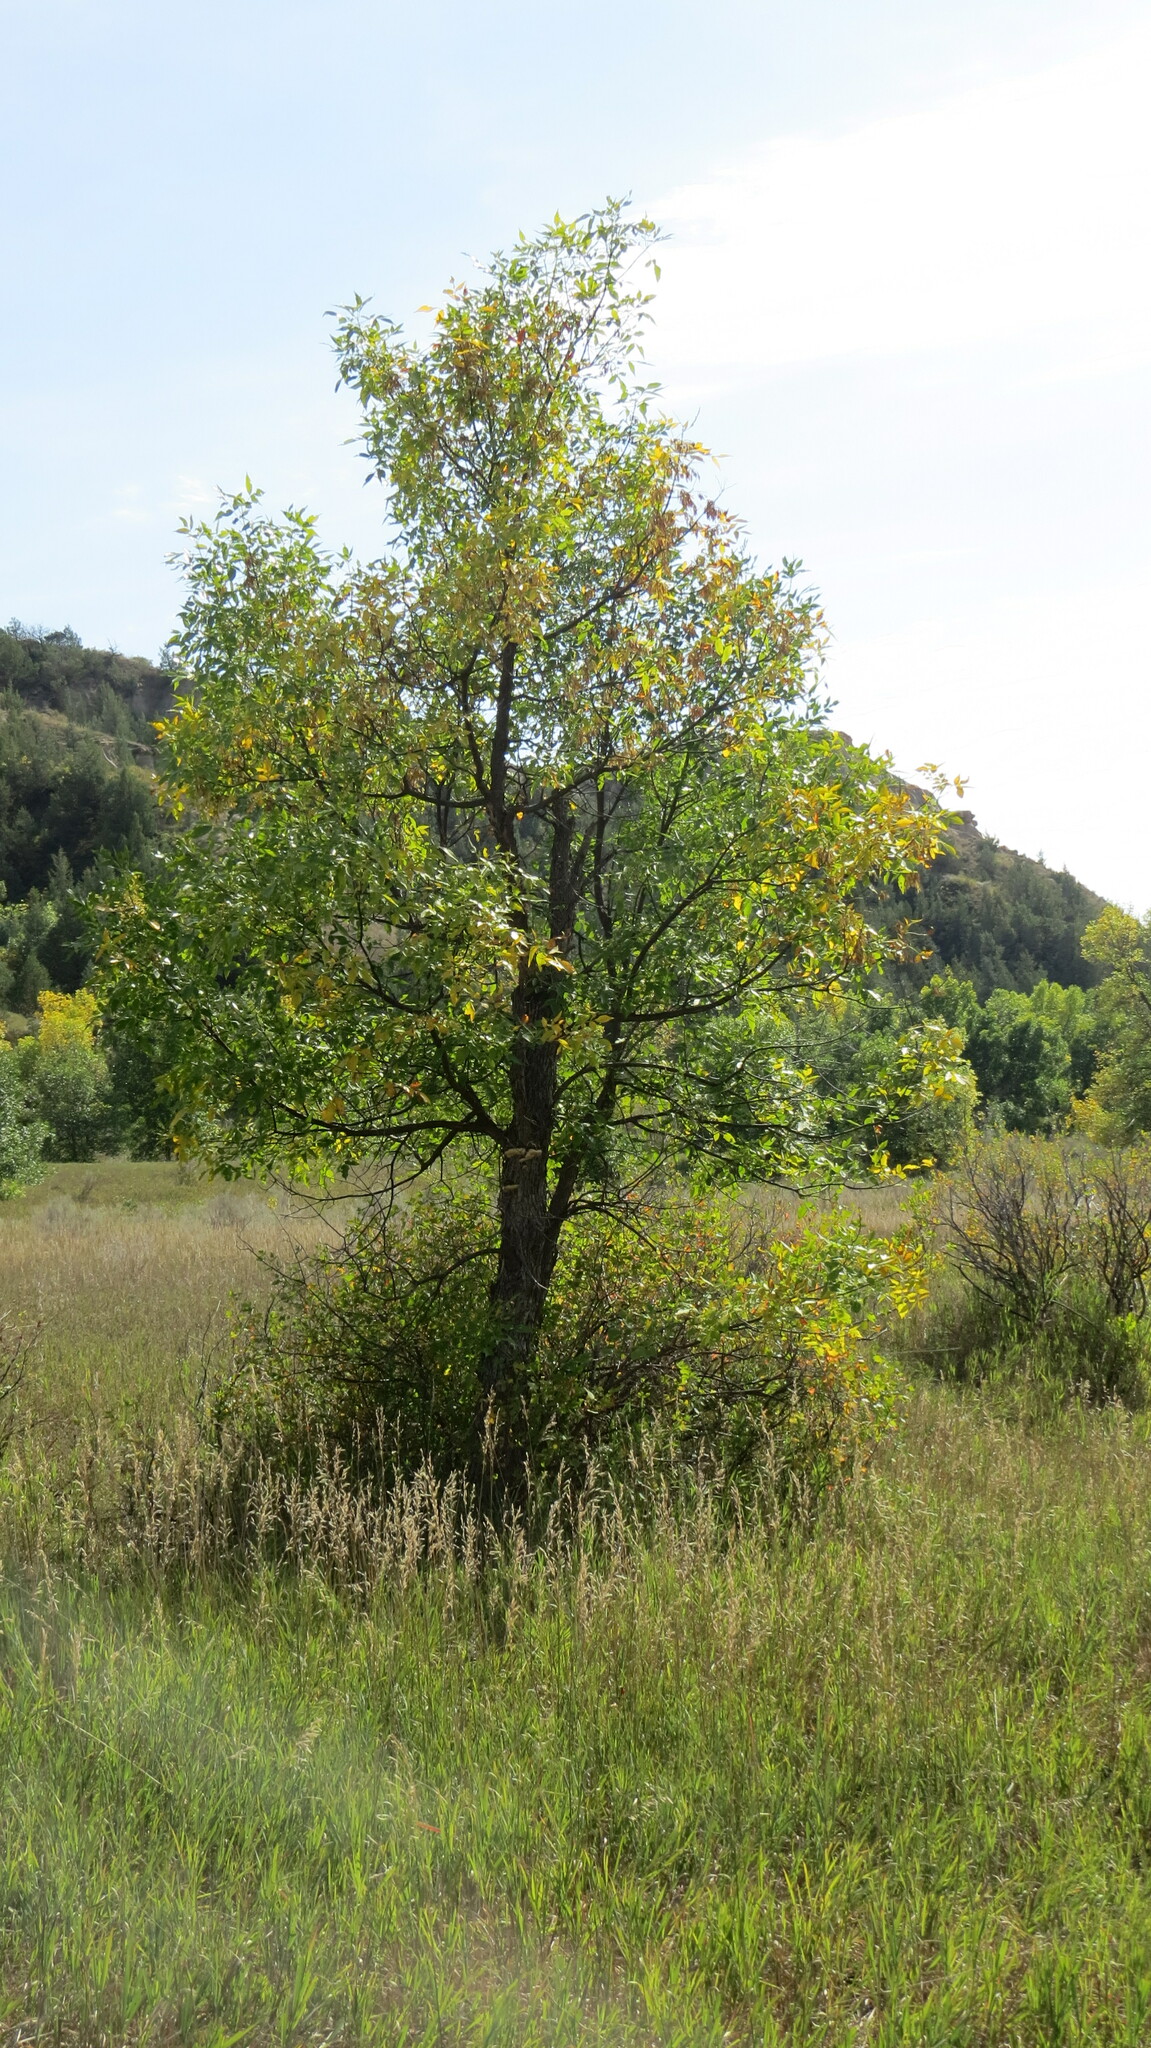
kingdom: Fungi
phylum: Basidiomycota
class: Agaricomycetes
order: Polyporales
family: Polyporaceae
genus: Perenniporia
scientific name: Perenniporia fraxinophila
